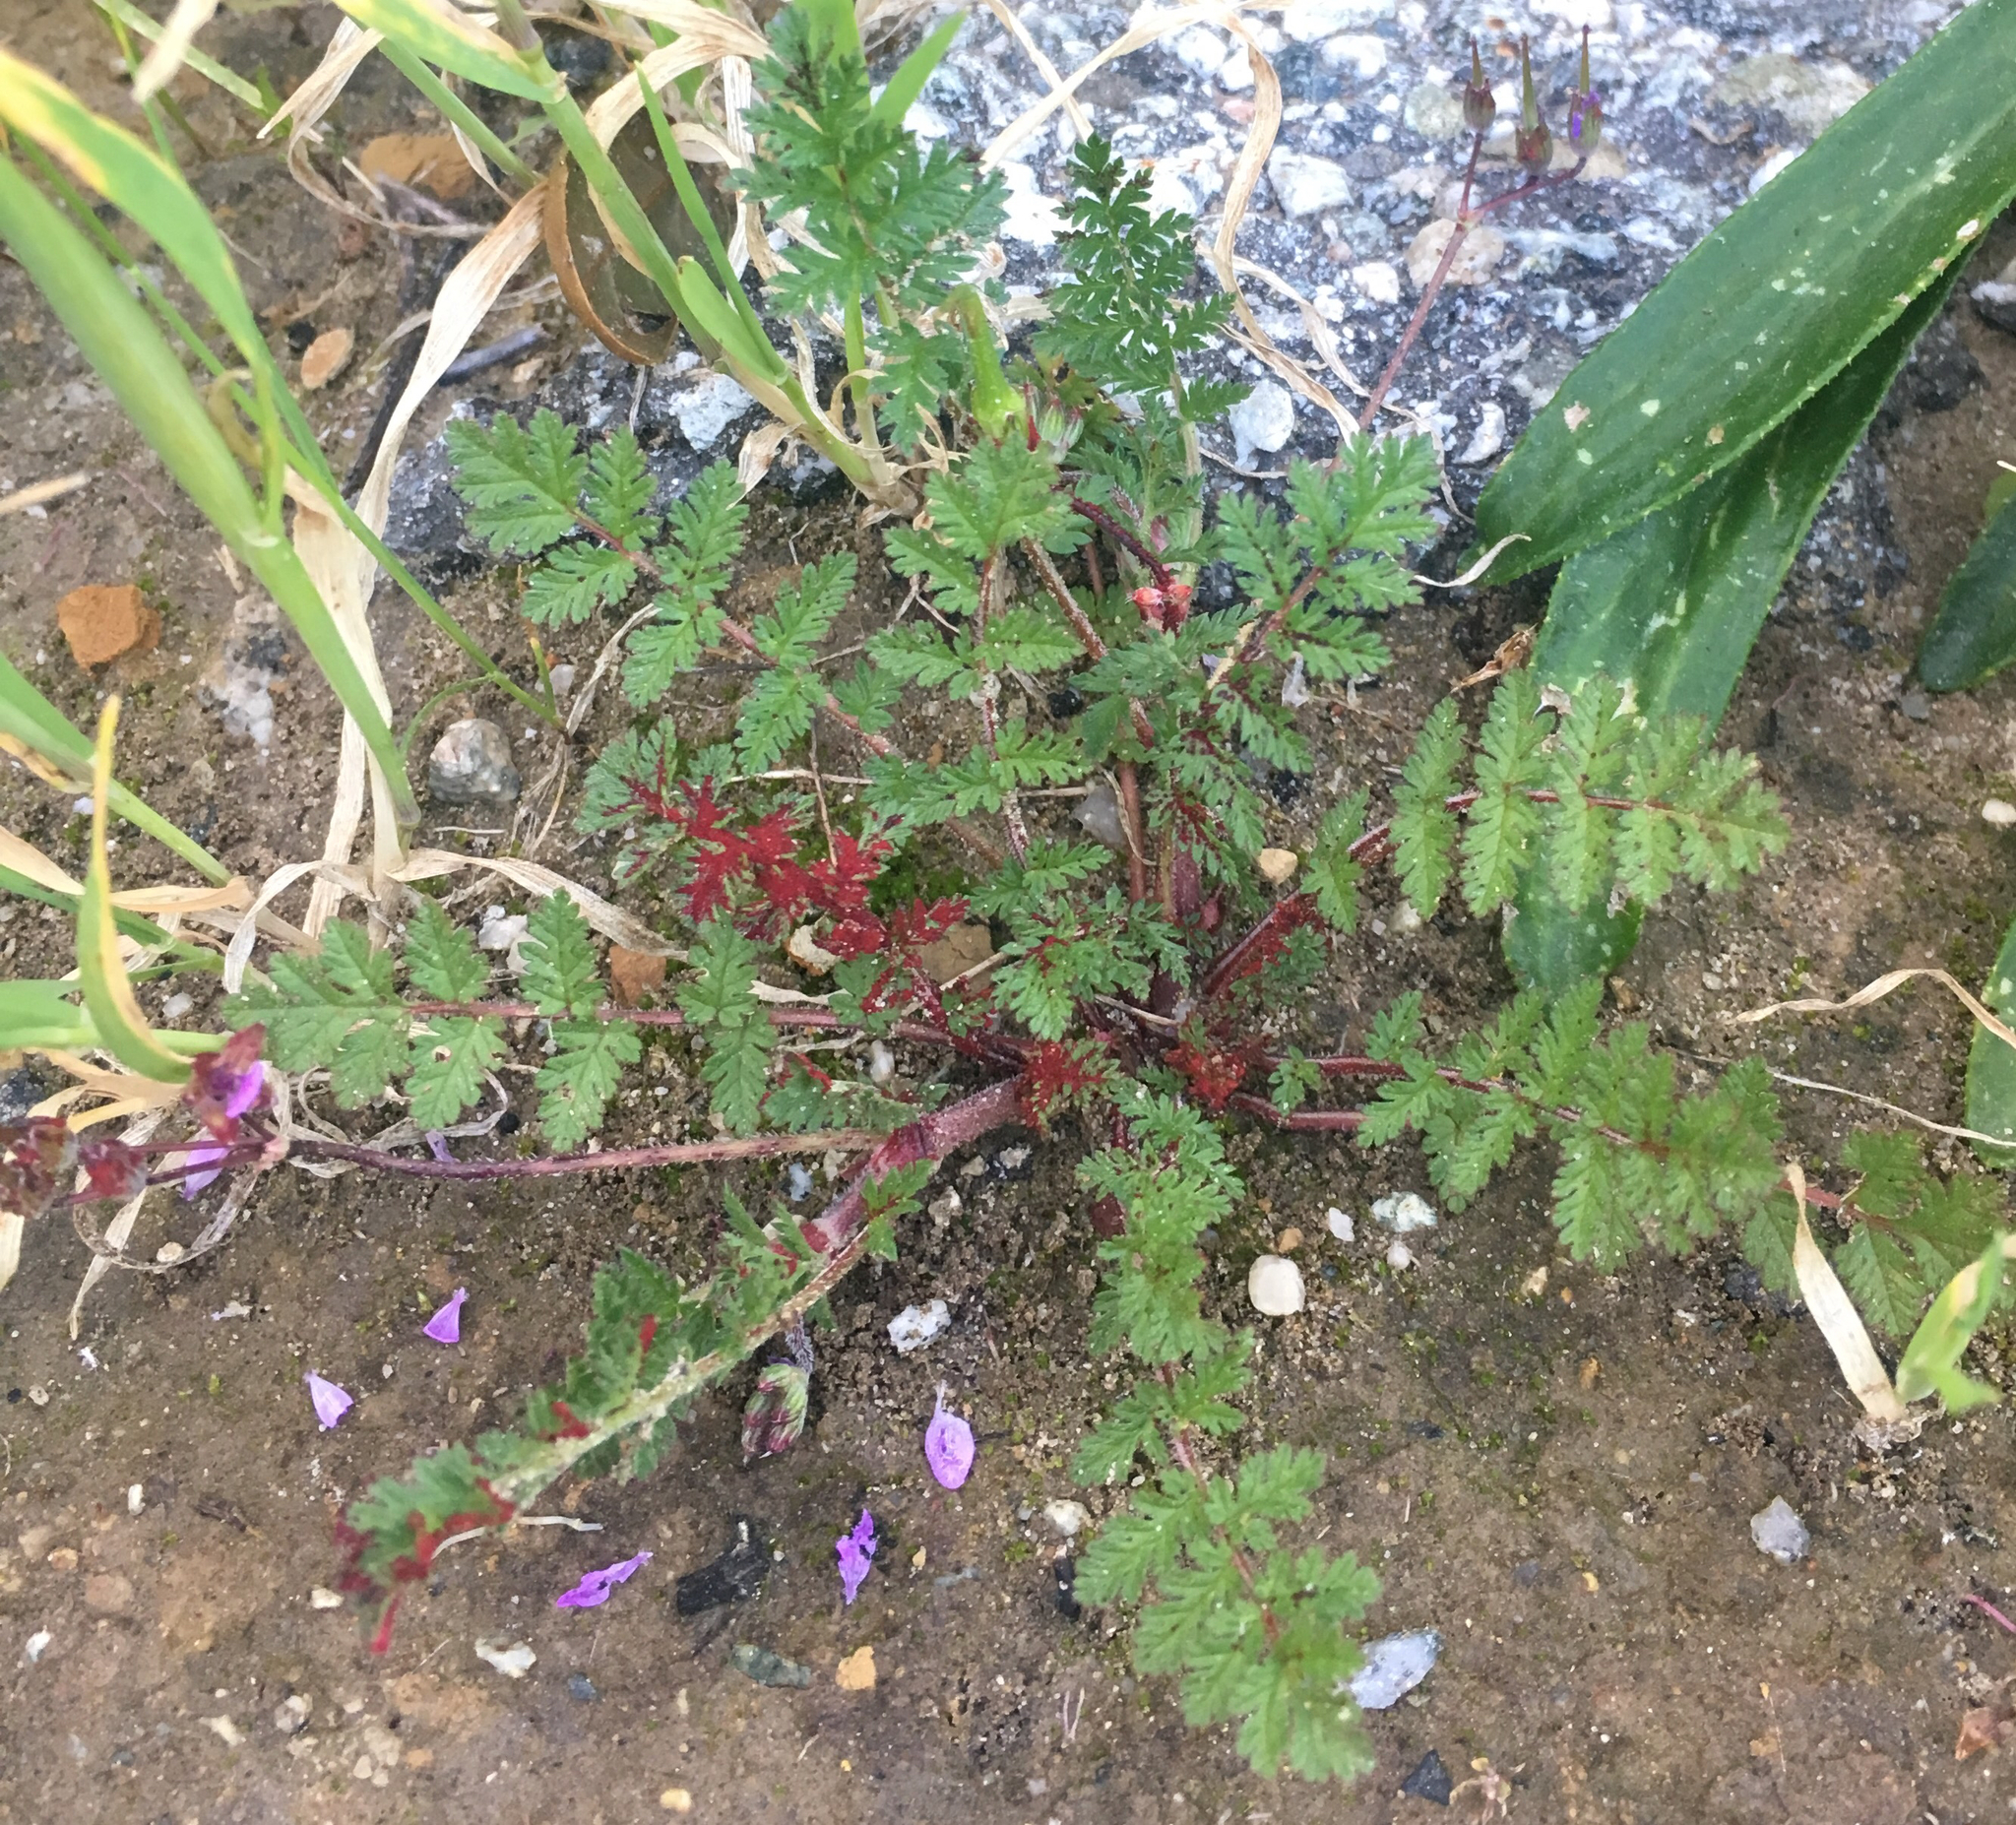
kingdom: Fungi
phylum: Chytridiomycota
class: Chytridiomycetes
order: Chytridiales
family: Synchytriaceae
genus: Synchytrium
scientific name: Synchytrium papillatum
